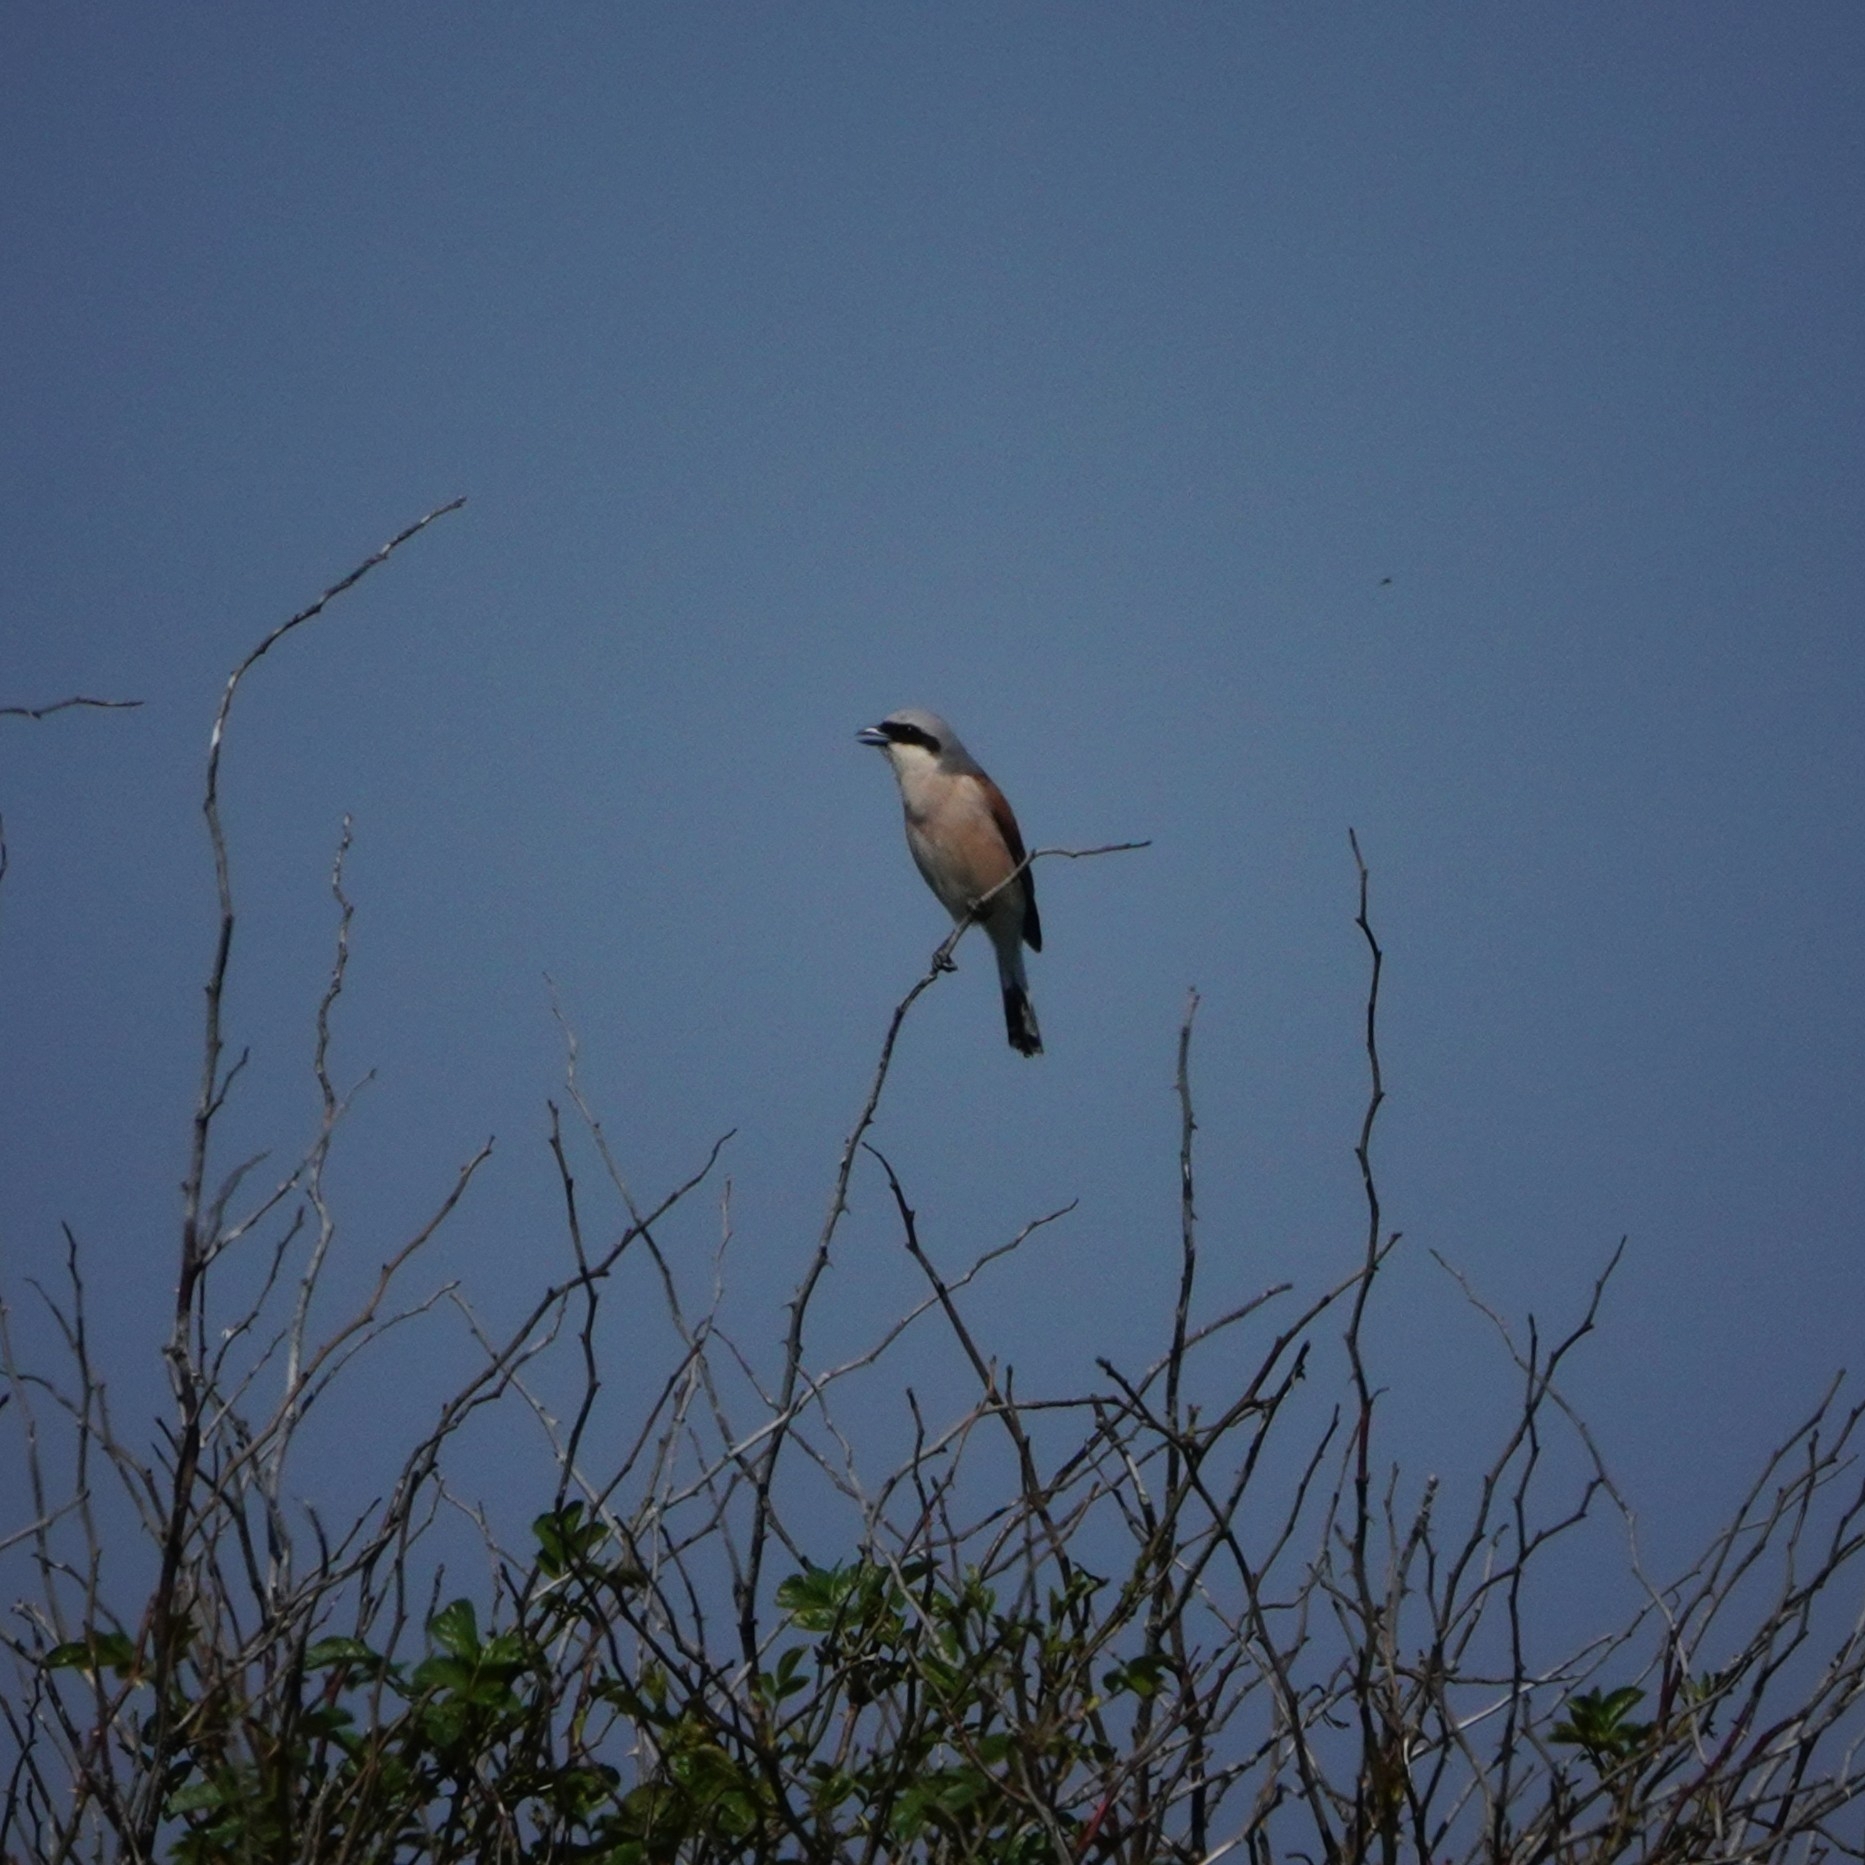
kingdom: Animalia
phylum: Chordata
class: Aves
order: Passeriformes
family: Laniidae
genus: Lanius
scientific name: Lanius collurio
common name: Red-backed shrike
